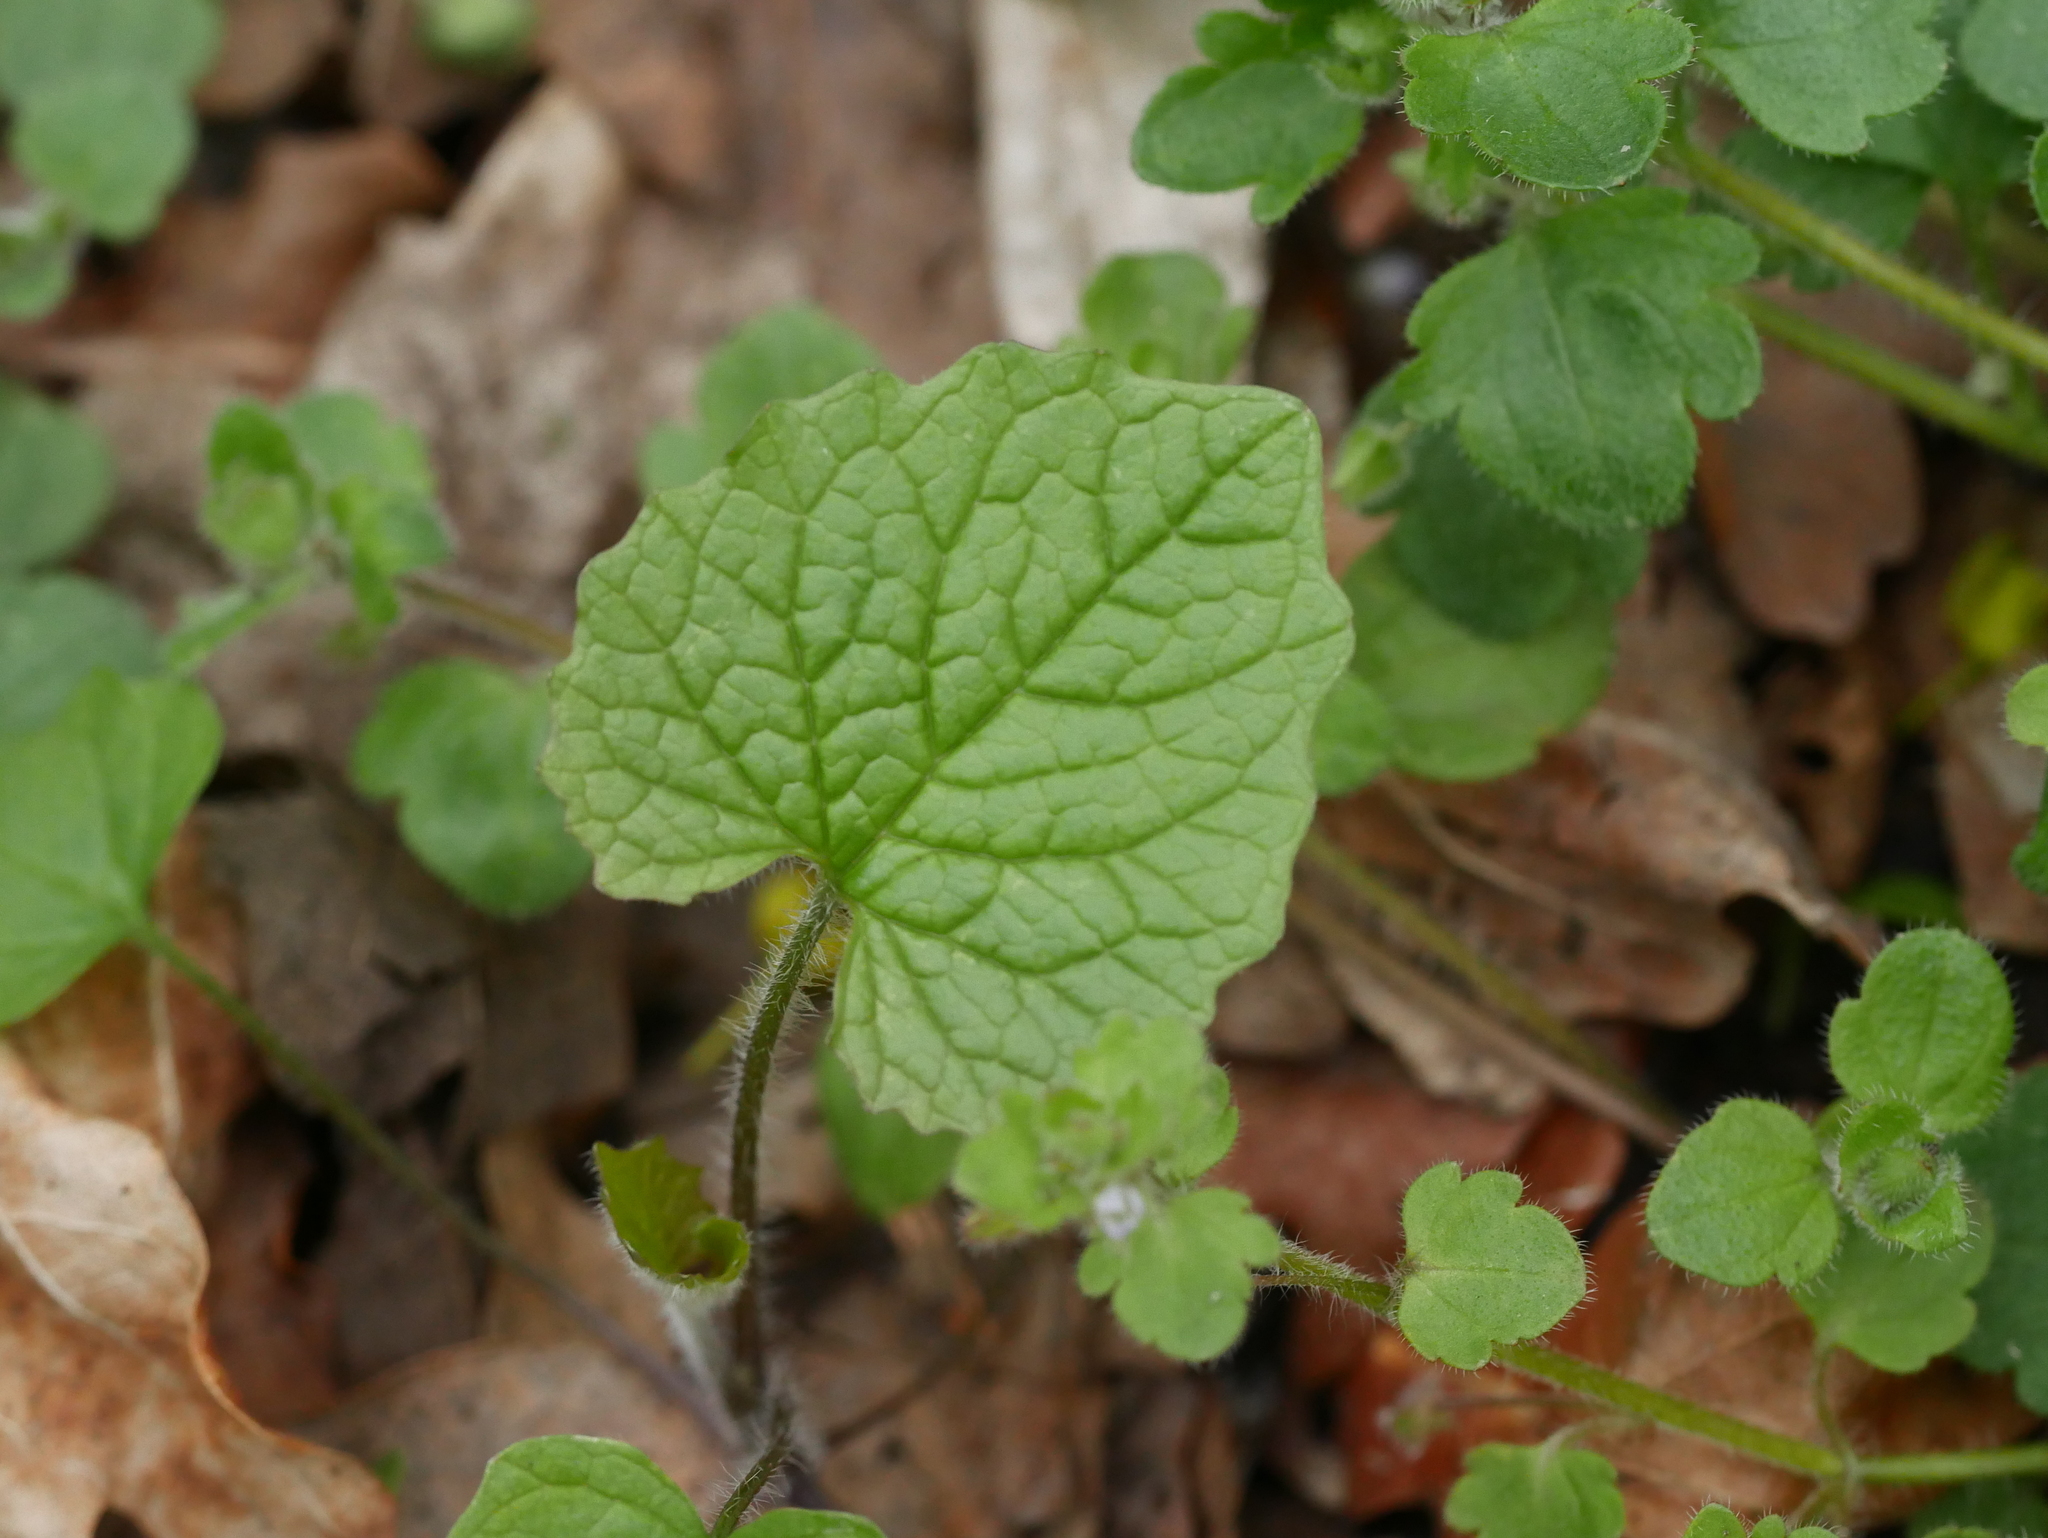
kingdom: Plantae
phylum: Tracheophyta
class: Magnoliopsida
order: Brassicales
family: Brassicaceae
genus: Alliaria
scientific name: Alliaria petiolata
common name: Garlic mustard
